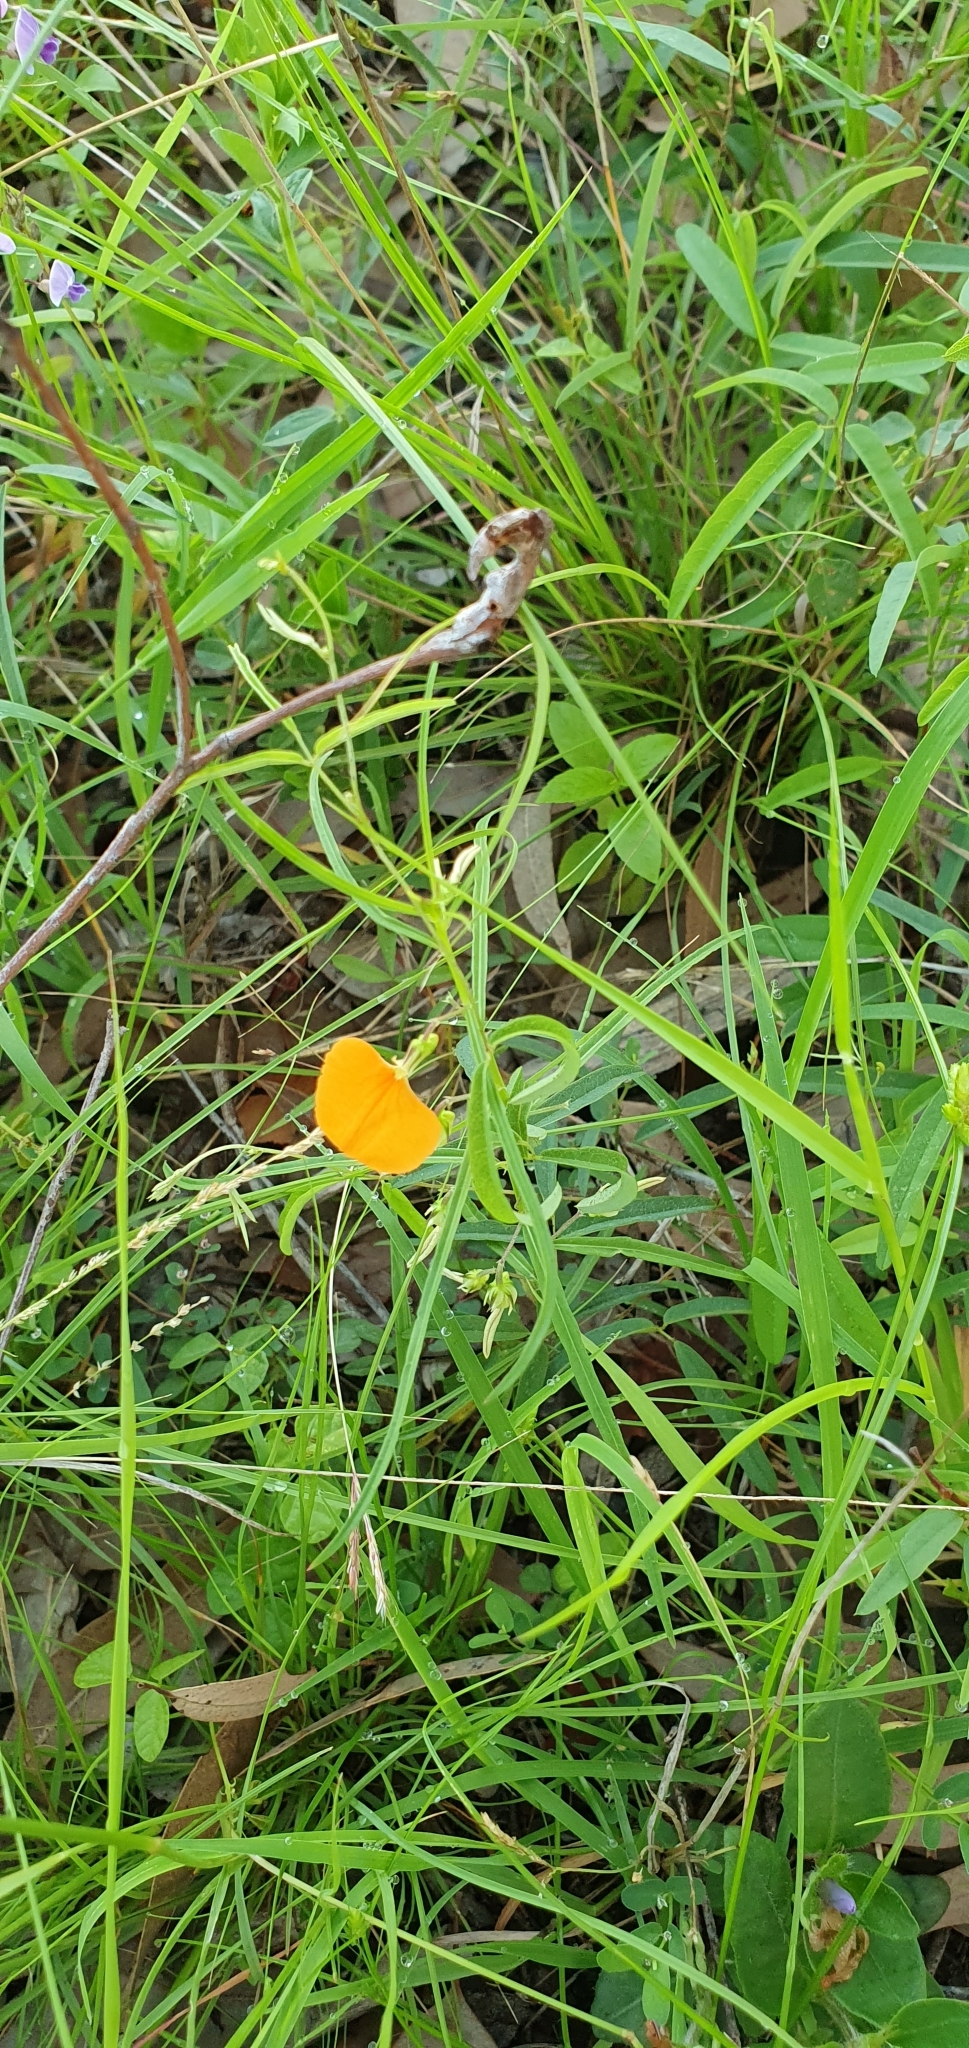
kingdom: Plantae
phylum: Tracheophyta
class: Magnoliopsida
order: Malpighiales
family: Violaceae
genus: Pigea
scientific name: Pigea stellarioides
